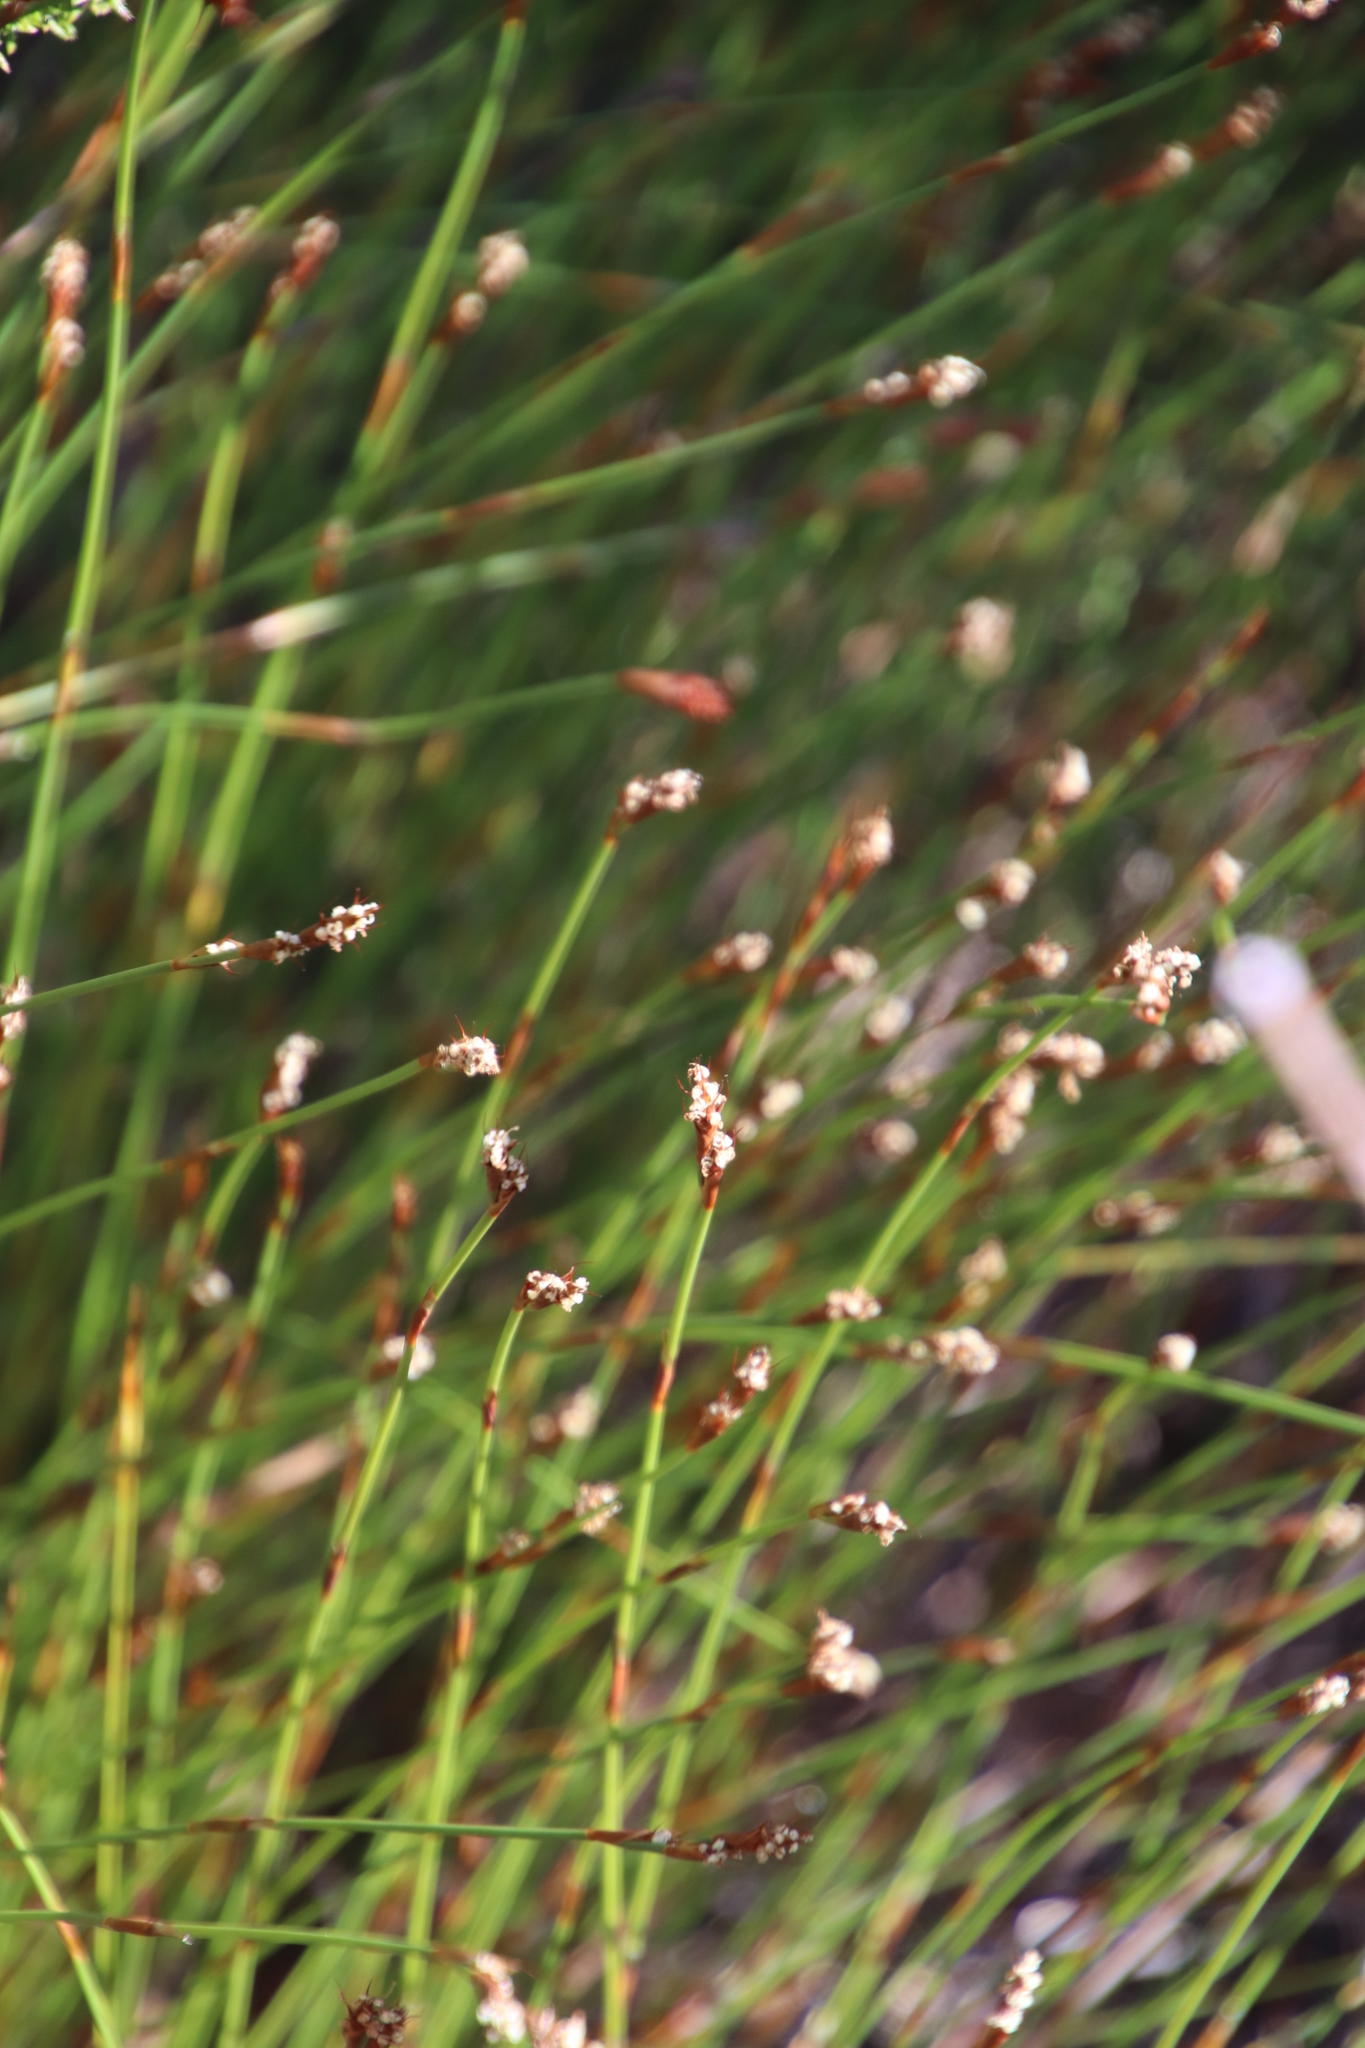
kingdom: Plantae
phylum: Tracheophyta
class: Liliopsida
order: Poales
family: Restionaceae
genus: Restio
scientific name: Restio capensis
